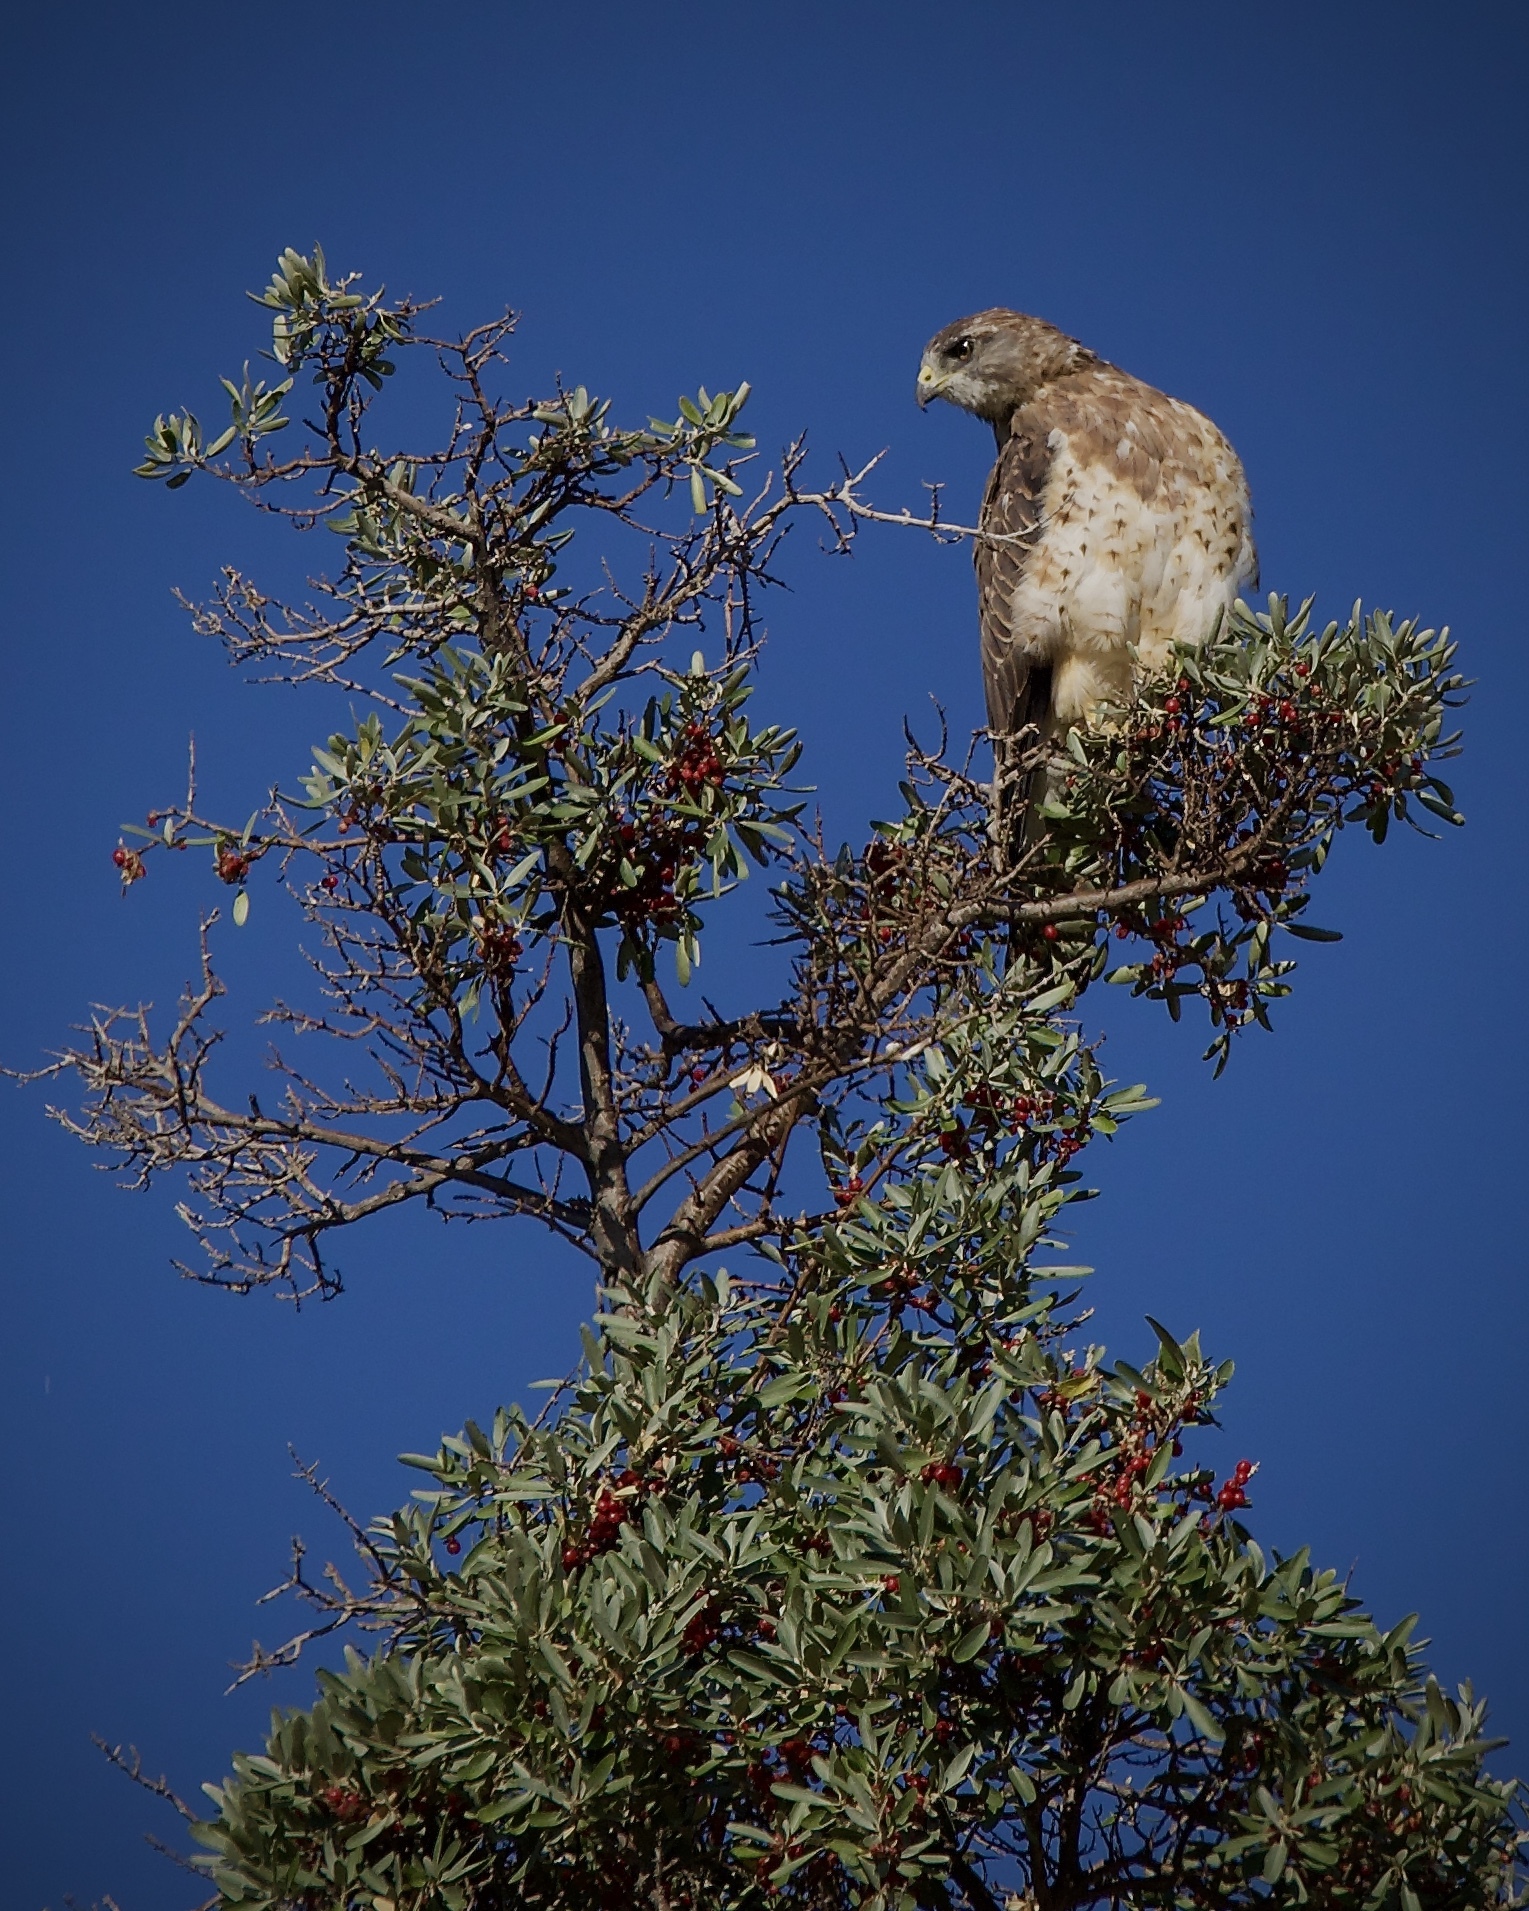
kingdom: Animalia
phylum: Chordata
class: Aves
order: Accipitriformes
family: Accipitridae
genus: Buteo
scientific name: Buteo swainsoni
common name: Swainson's hawk
